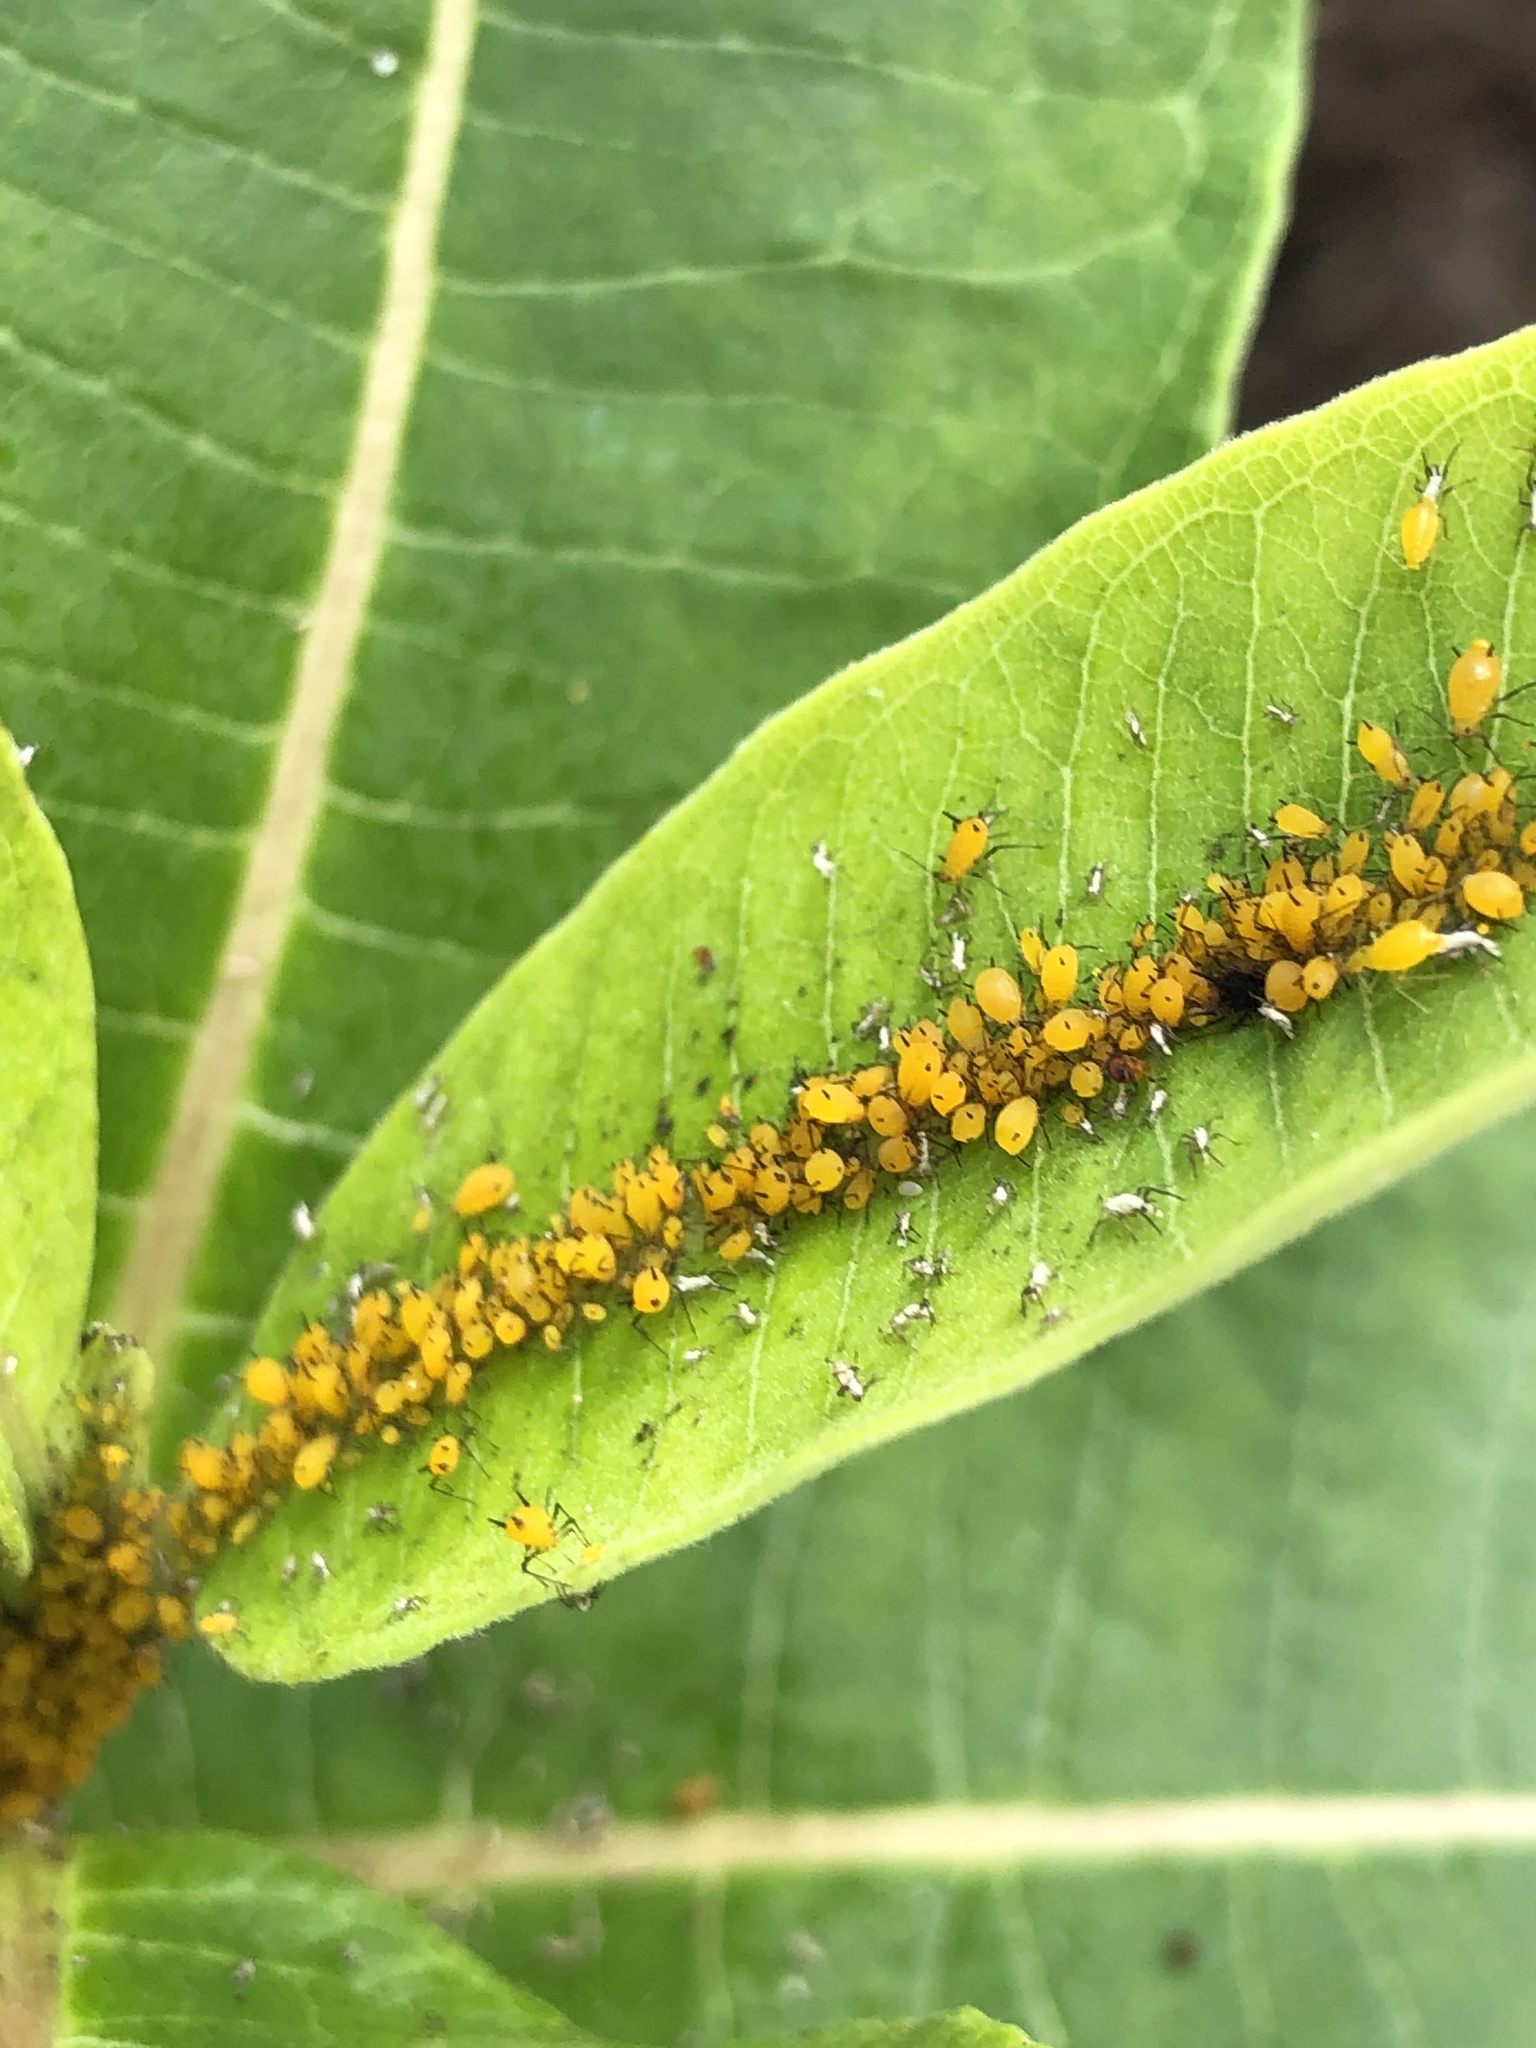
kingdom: Animalia
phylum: Arthropoda
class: Insecta
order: Hemiptera
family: Aphididae
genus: Aphis
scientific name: Aphis nerii
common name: Oleander aphid
